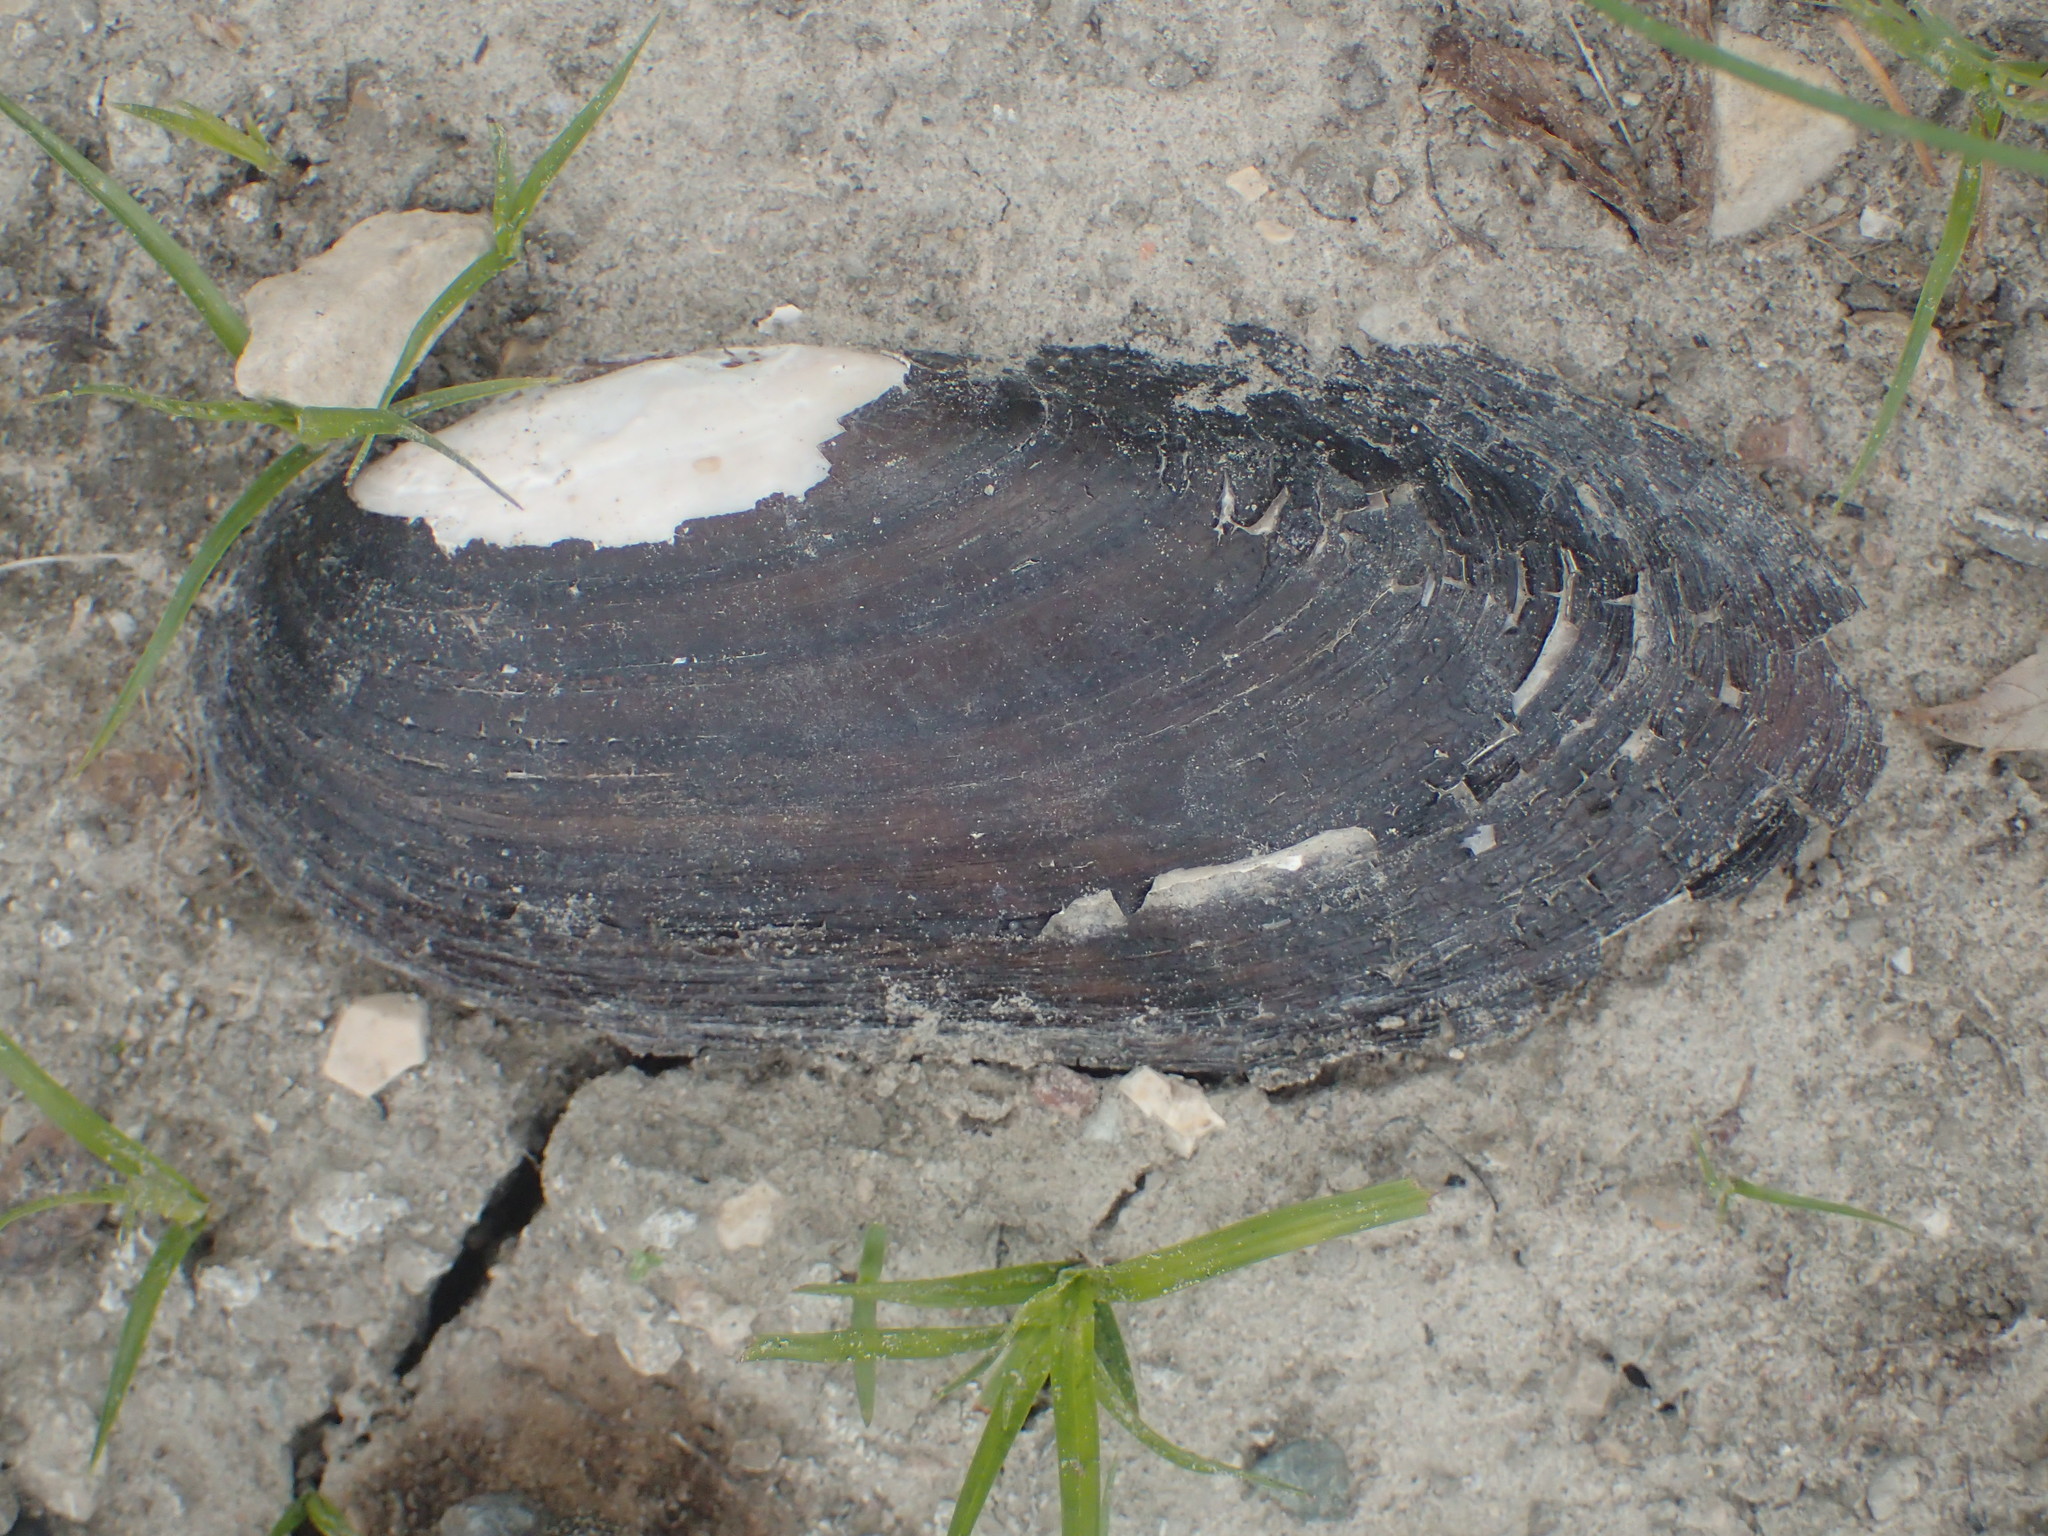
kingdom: Animalia
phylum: Mollusca
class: Bivalvia
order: Unionida
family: Unionidae
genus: Ligumia
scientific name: Ligumia recta
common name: Black sandshell
